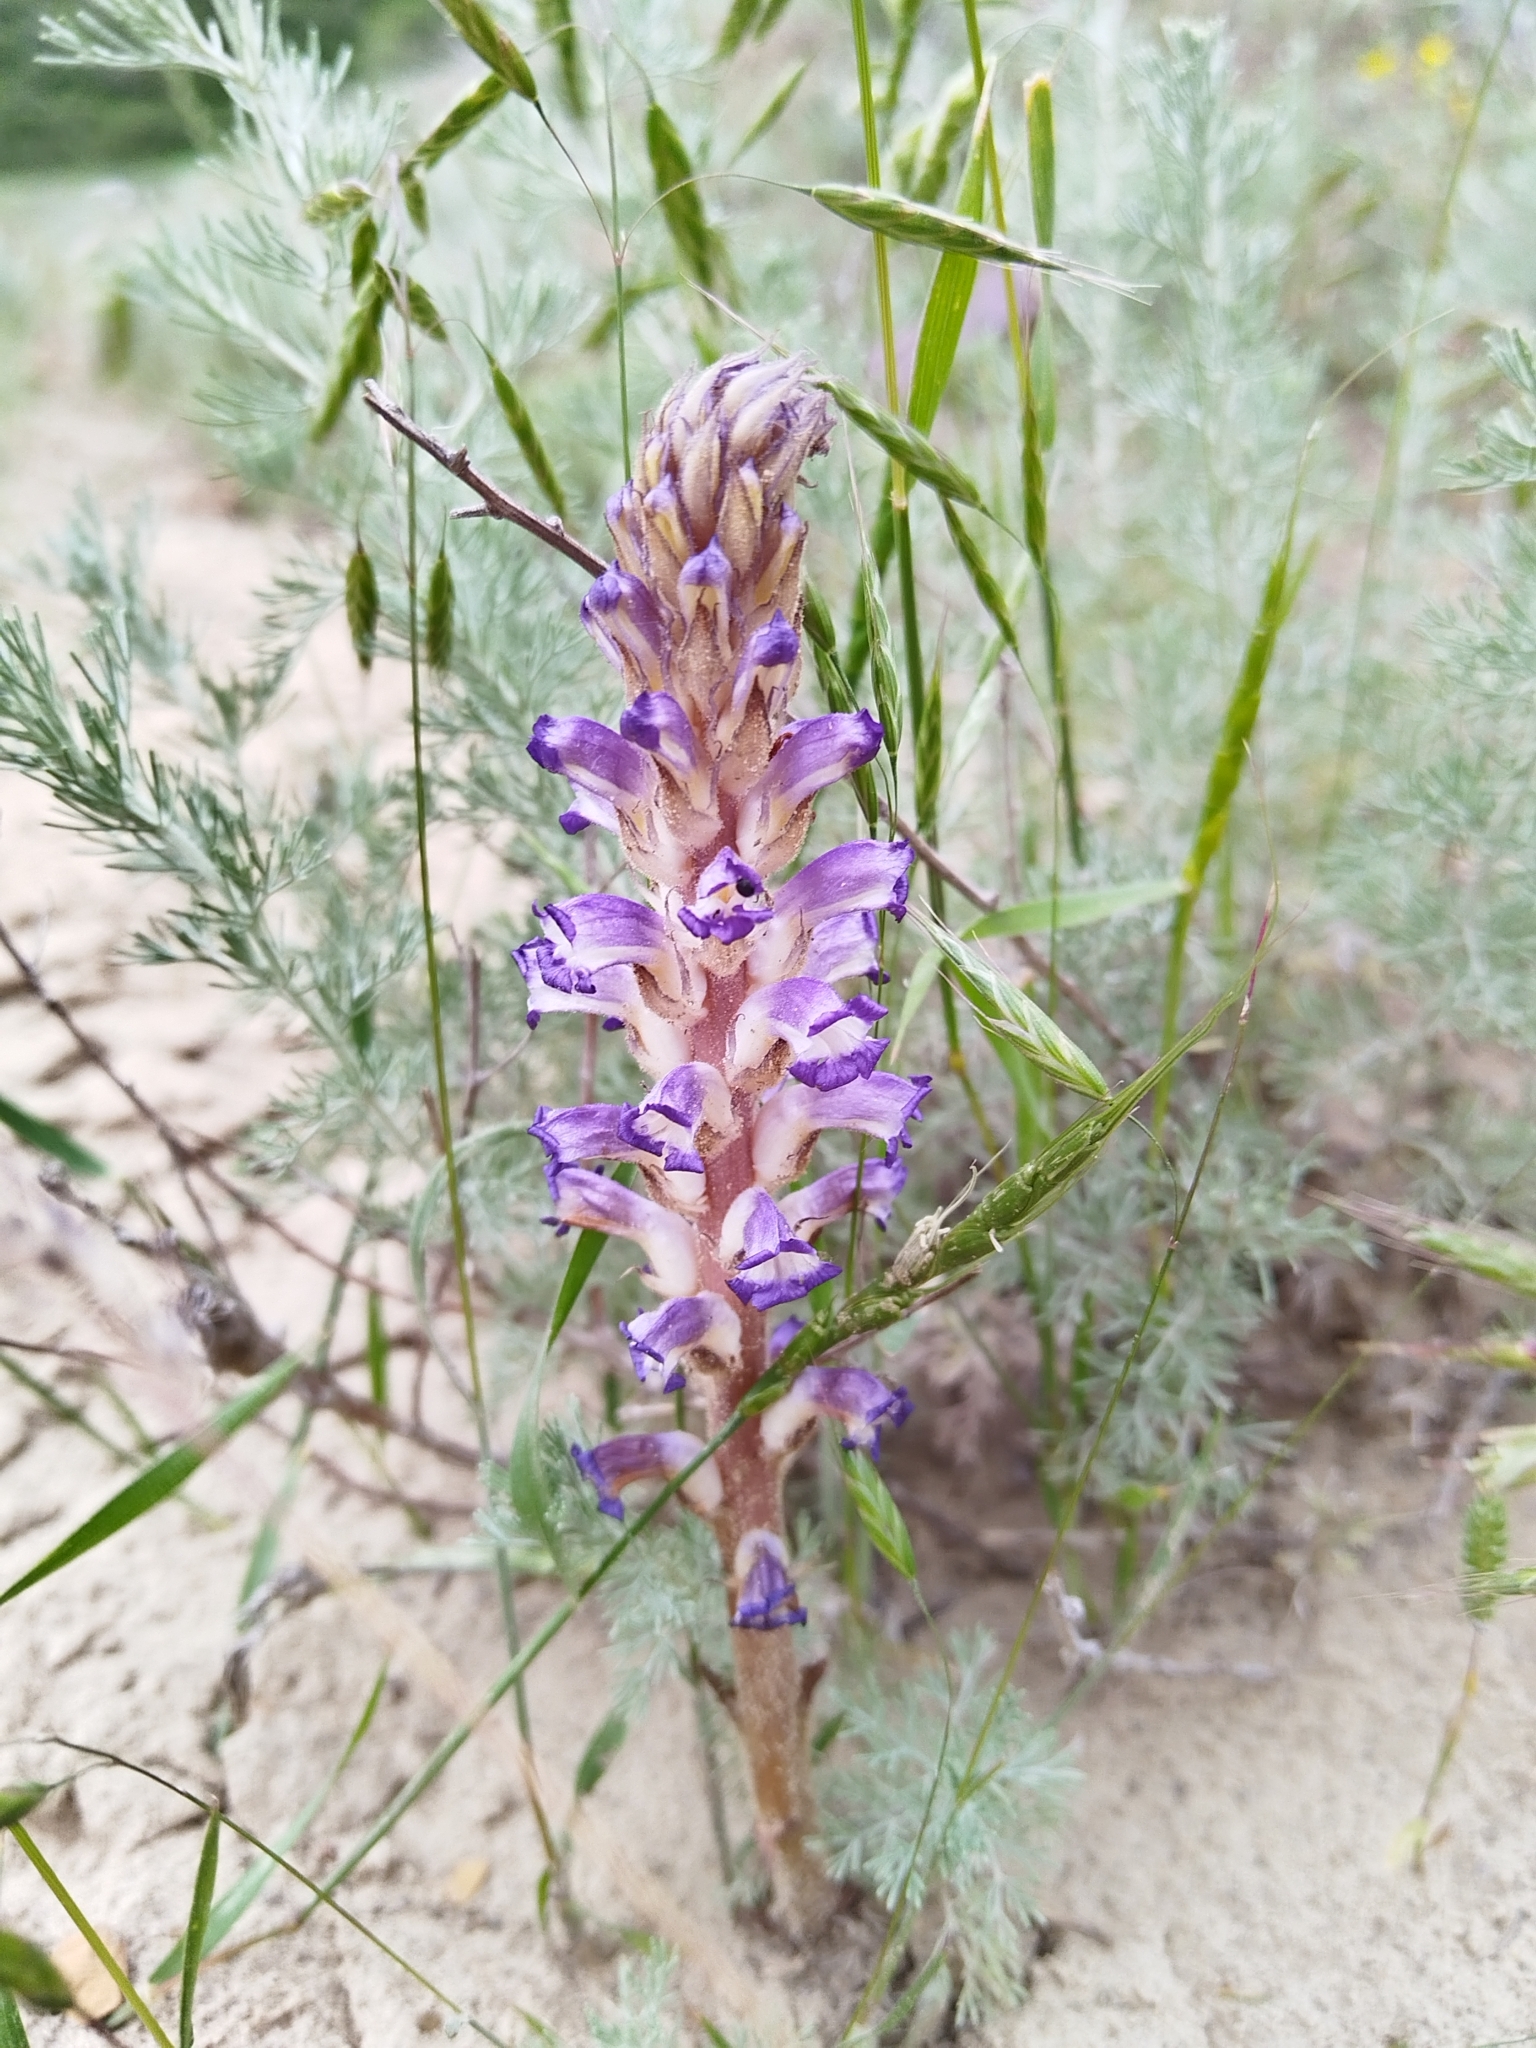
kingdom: Plantae
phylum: Tracheophyta
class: Magnoliopsida
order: Lamiales
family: Orobanchaceae
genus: Orobanche
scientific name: Orobanche cernua
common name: Australian broomrape
